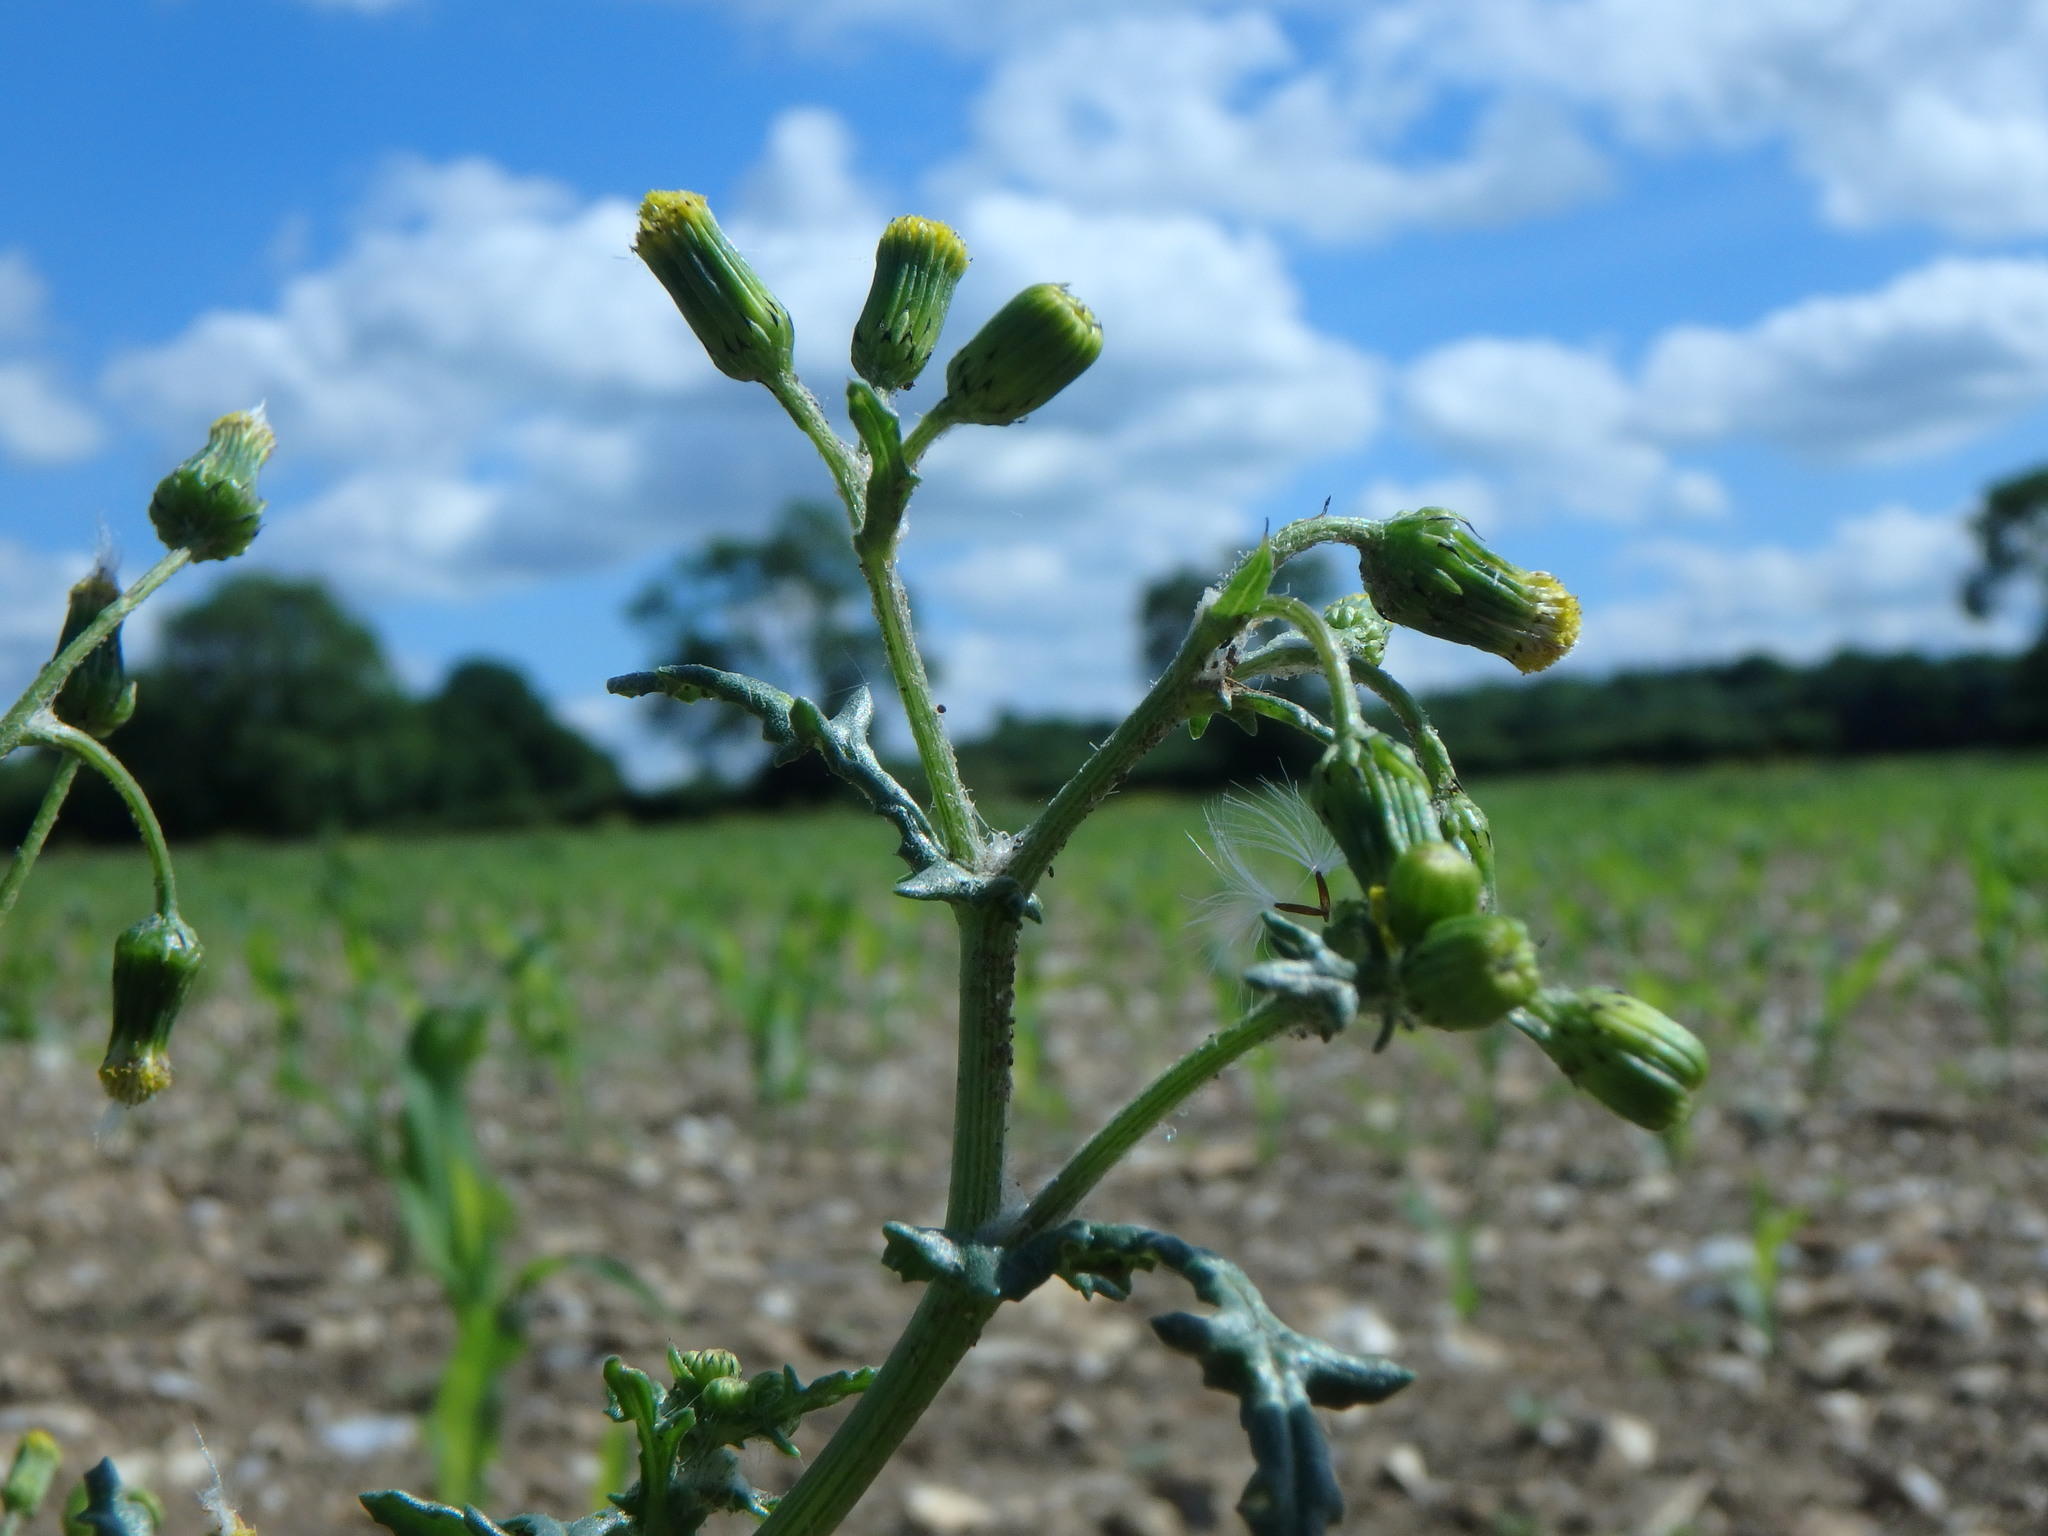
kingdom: Plantae
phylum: Tracheophyta
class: Magnoliopsida
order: Asterales
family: Asteraceae
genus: Senecio
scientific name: Senecio vulgaris
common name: Old-man-in-the-spring
